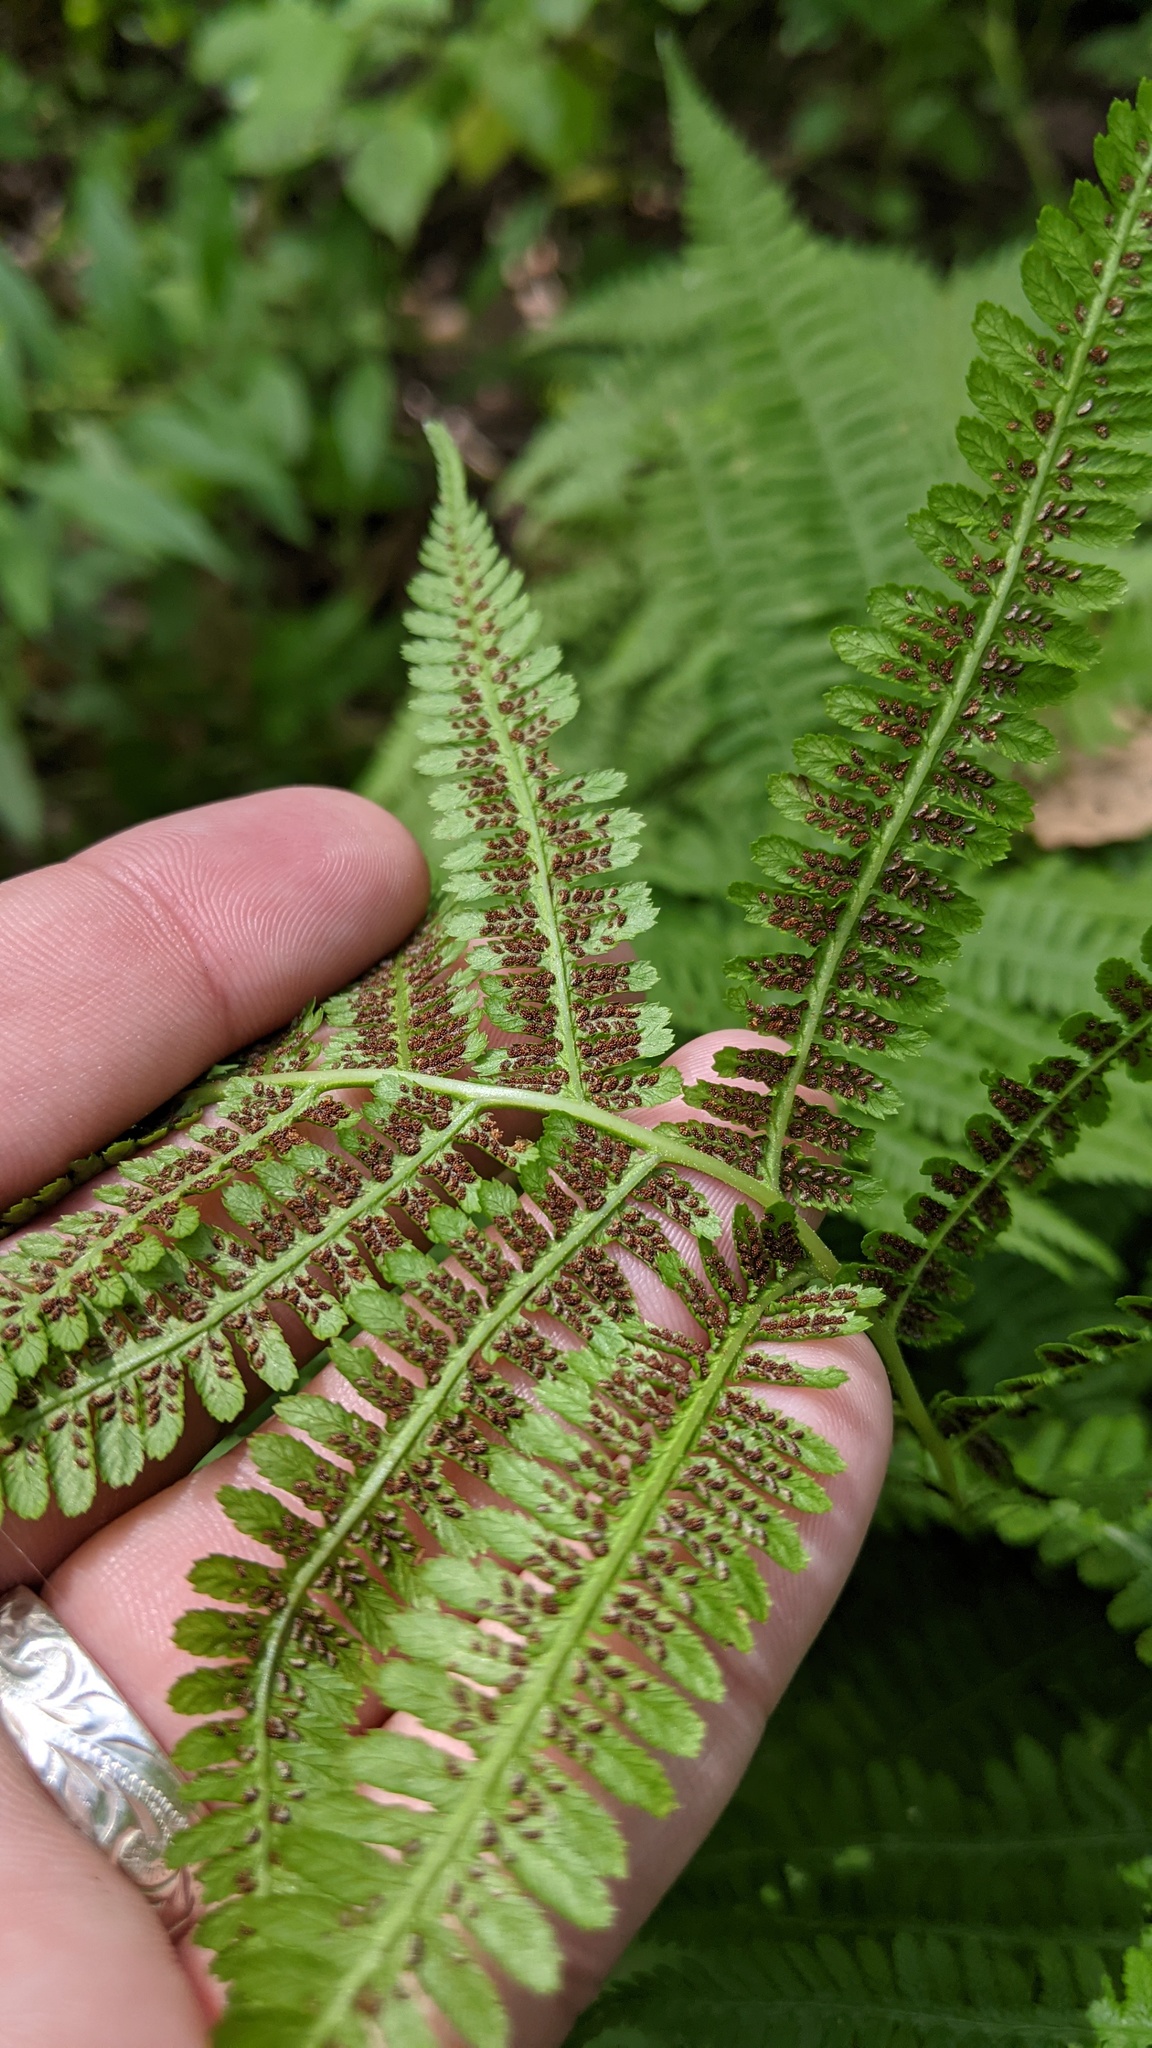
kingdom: Plantae
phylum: Tracheophyta
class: Polypodiopsida
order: Polypodiales
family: Athyriaceae
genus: Athyrium
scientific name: Athyrium angustum
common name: Northern lady fern
